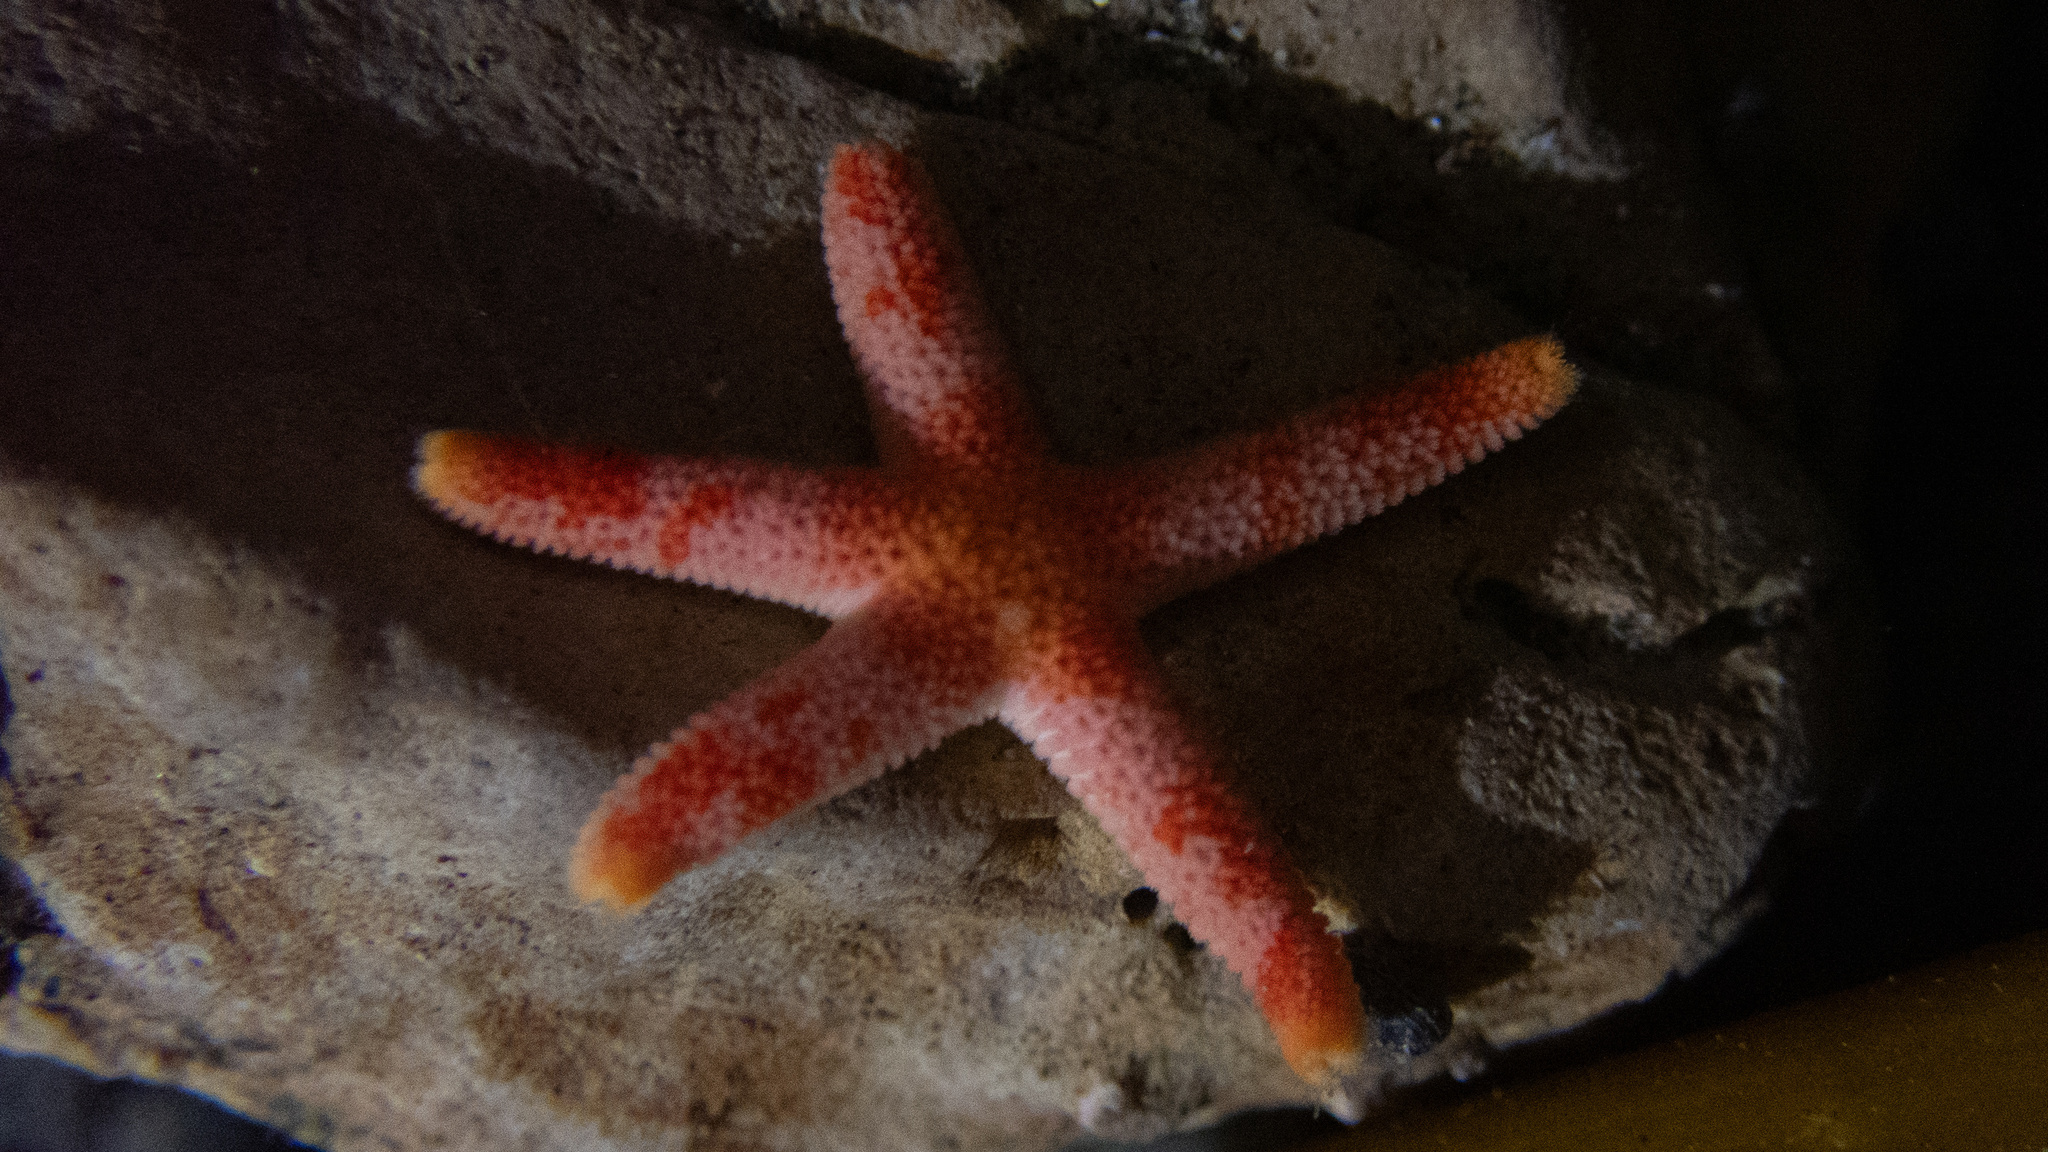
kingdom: Animalia
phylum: Echinodermata
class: Asteroidea
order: Spinulosida
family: Echinasteridae
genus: Henricia
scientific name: Henricia pumila
